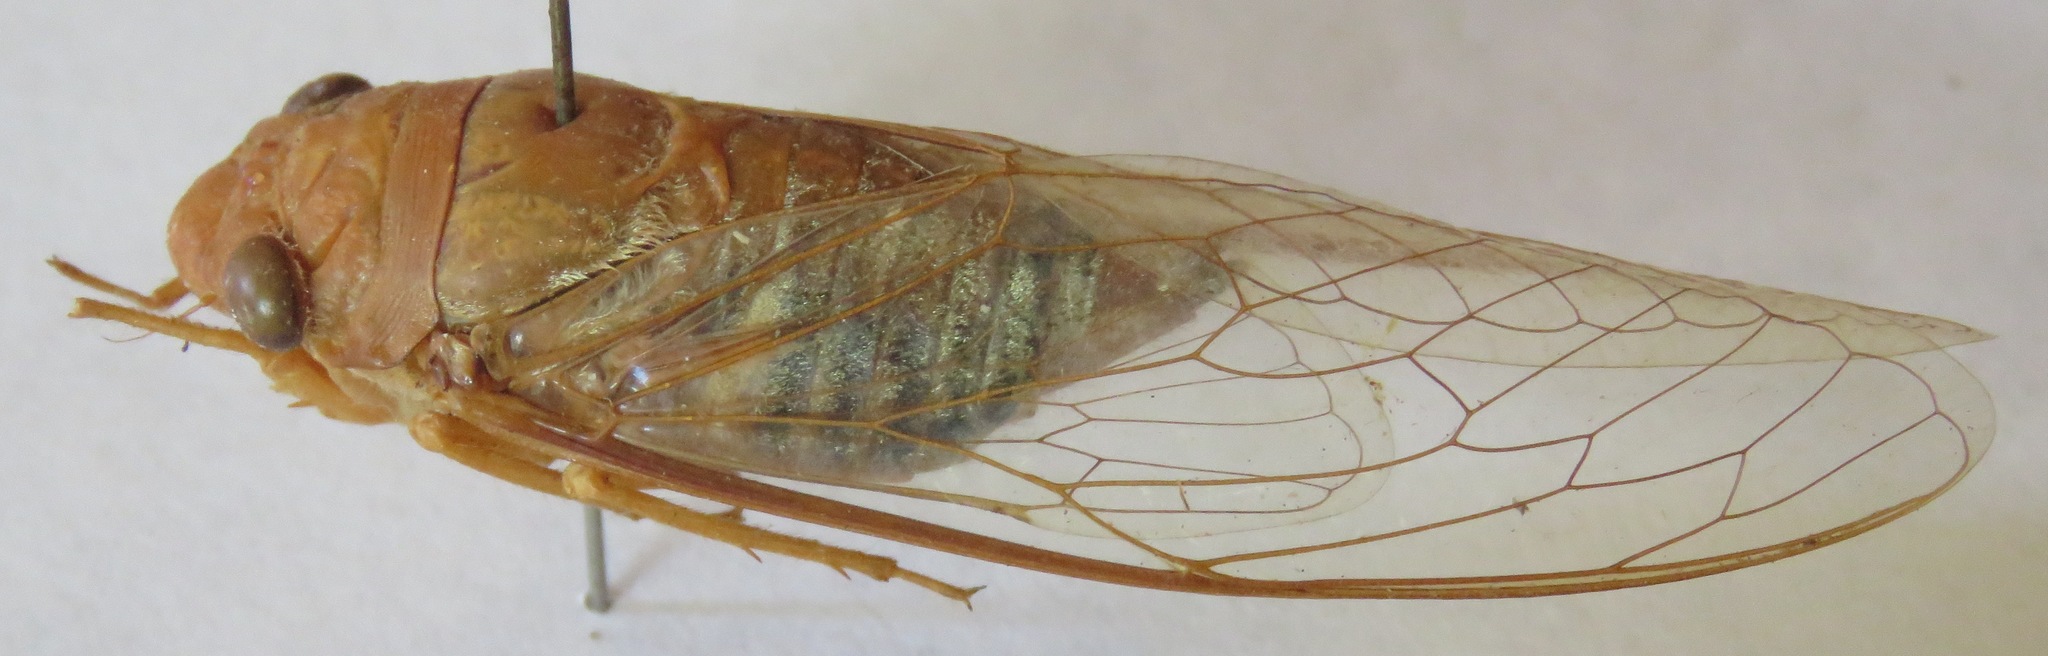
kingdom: Animalia
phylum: Arthropoda
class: Insecta
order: Hemiptera
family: Cicadidae
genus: Dundubia
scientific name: Dundubia vaginata
